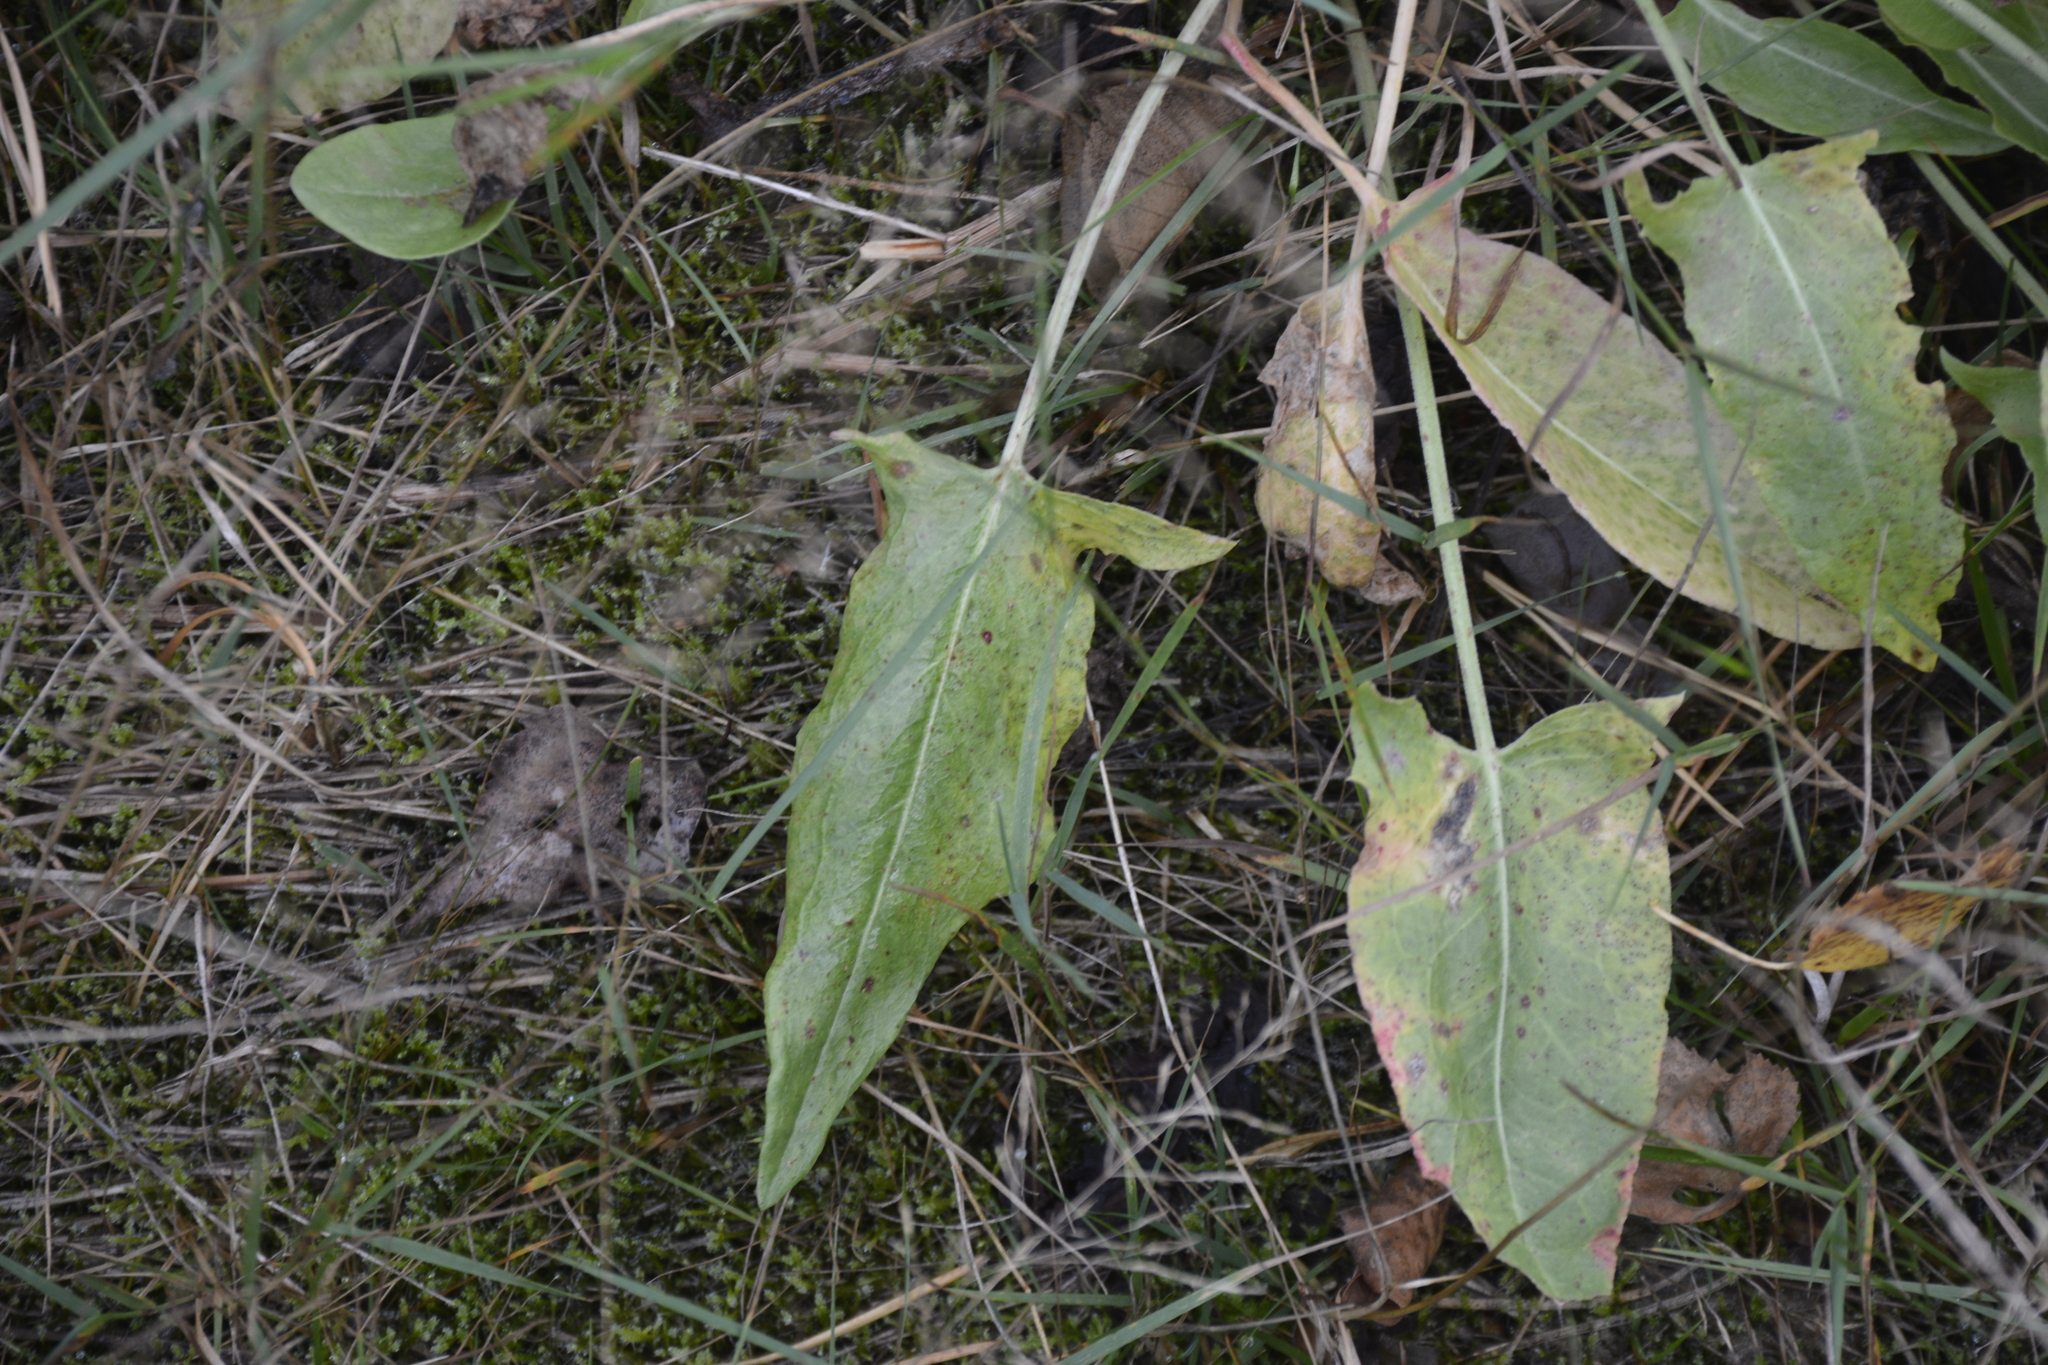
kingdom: Plantae
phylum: Tracheophyta
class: Magnoliopsida
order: Caryophyllales
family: Polygonaceae
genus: Rumex
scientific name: Rumex thyrsiflorus
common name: Garden sorrel
